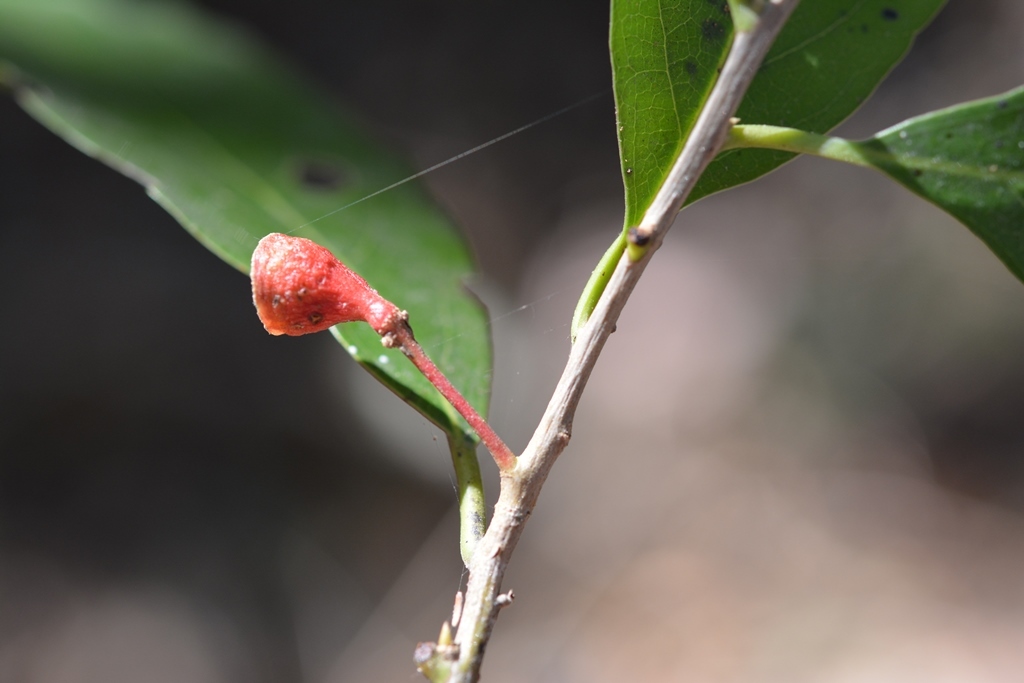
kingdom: Plantae
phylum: Tracheophyta
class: Magnoliopsida
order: Laurales
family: Lauraceae
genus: Ocotea
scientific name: Ocotea puberula
